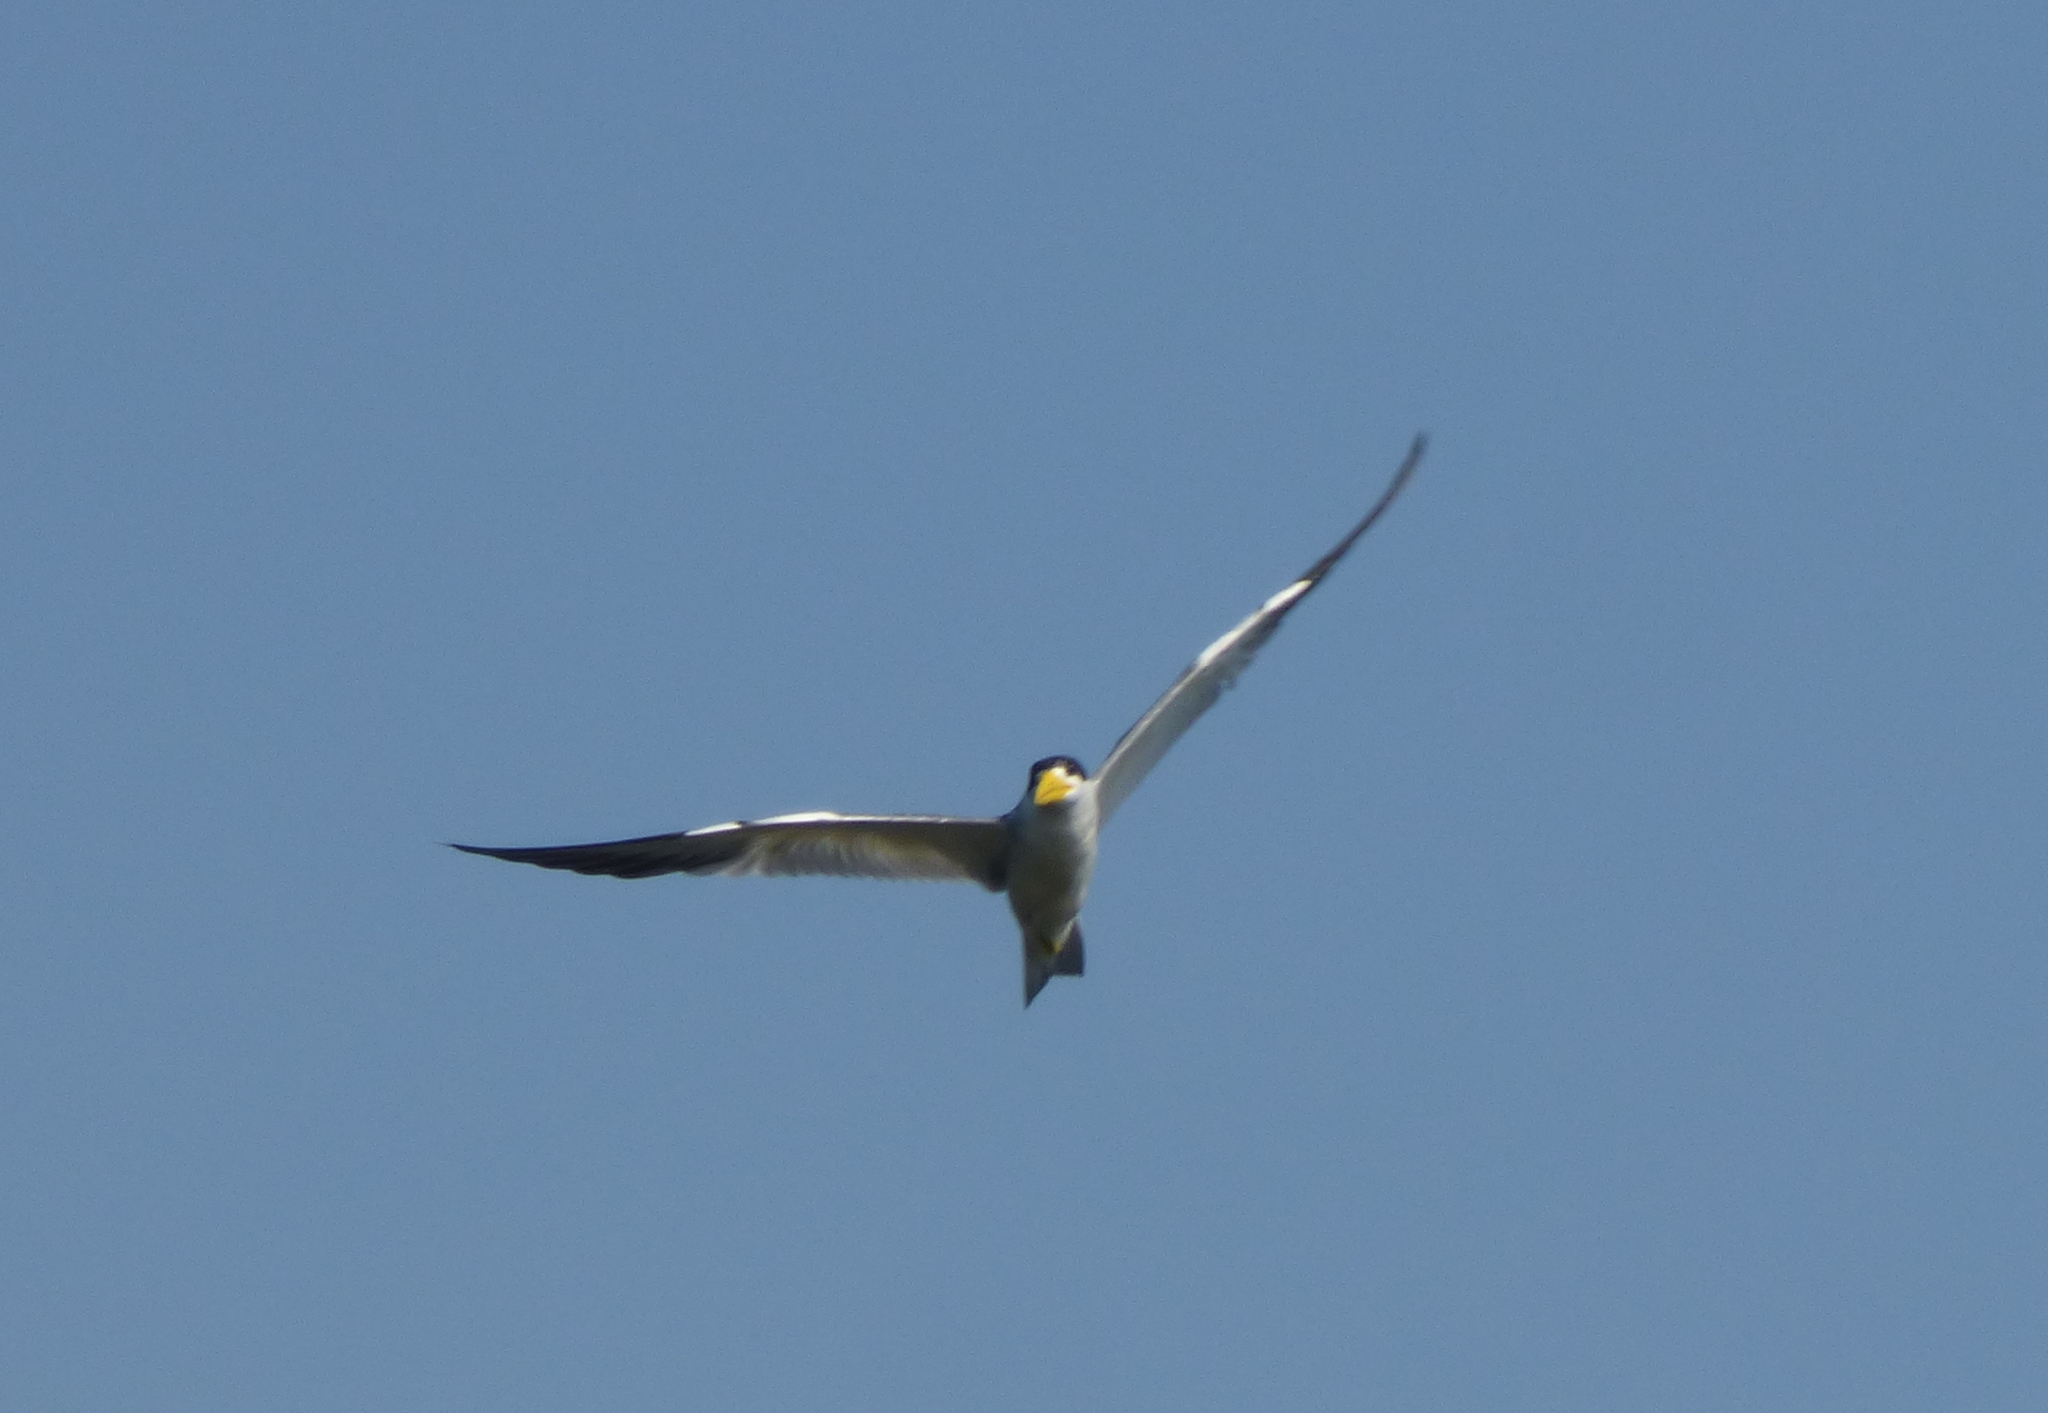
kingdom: Animalia
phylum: Chordata
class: Aves
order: Charadriiformes
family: Laridae
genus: Phaetusa
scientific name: Phaetusa simplex
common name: Large-billed tern
